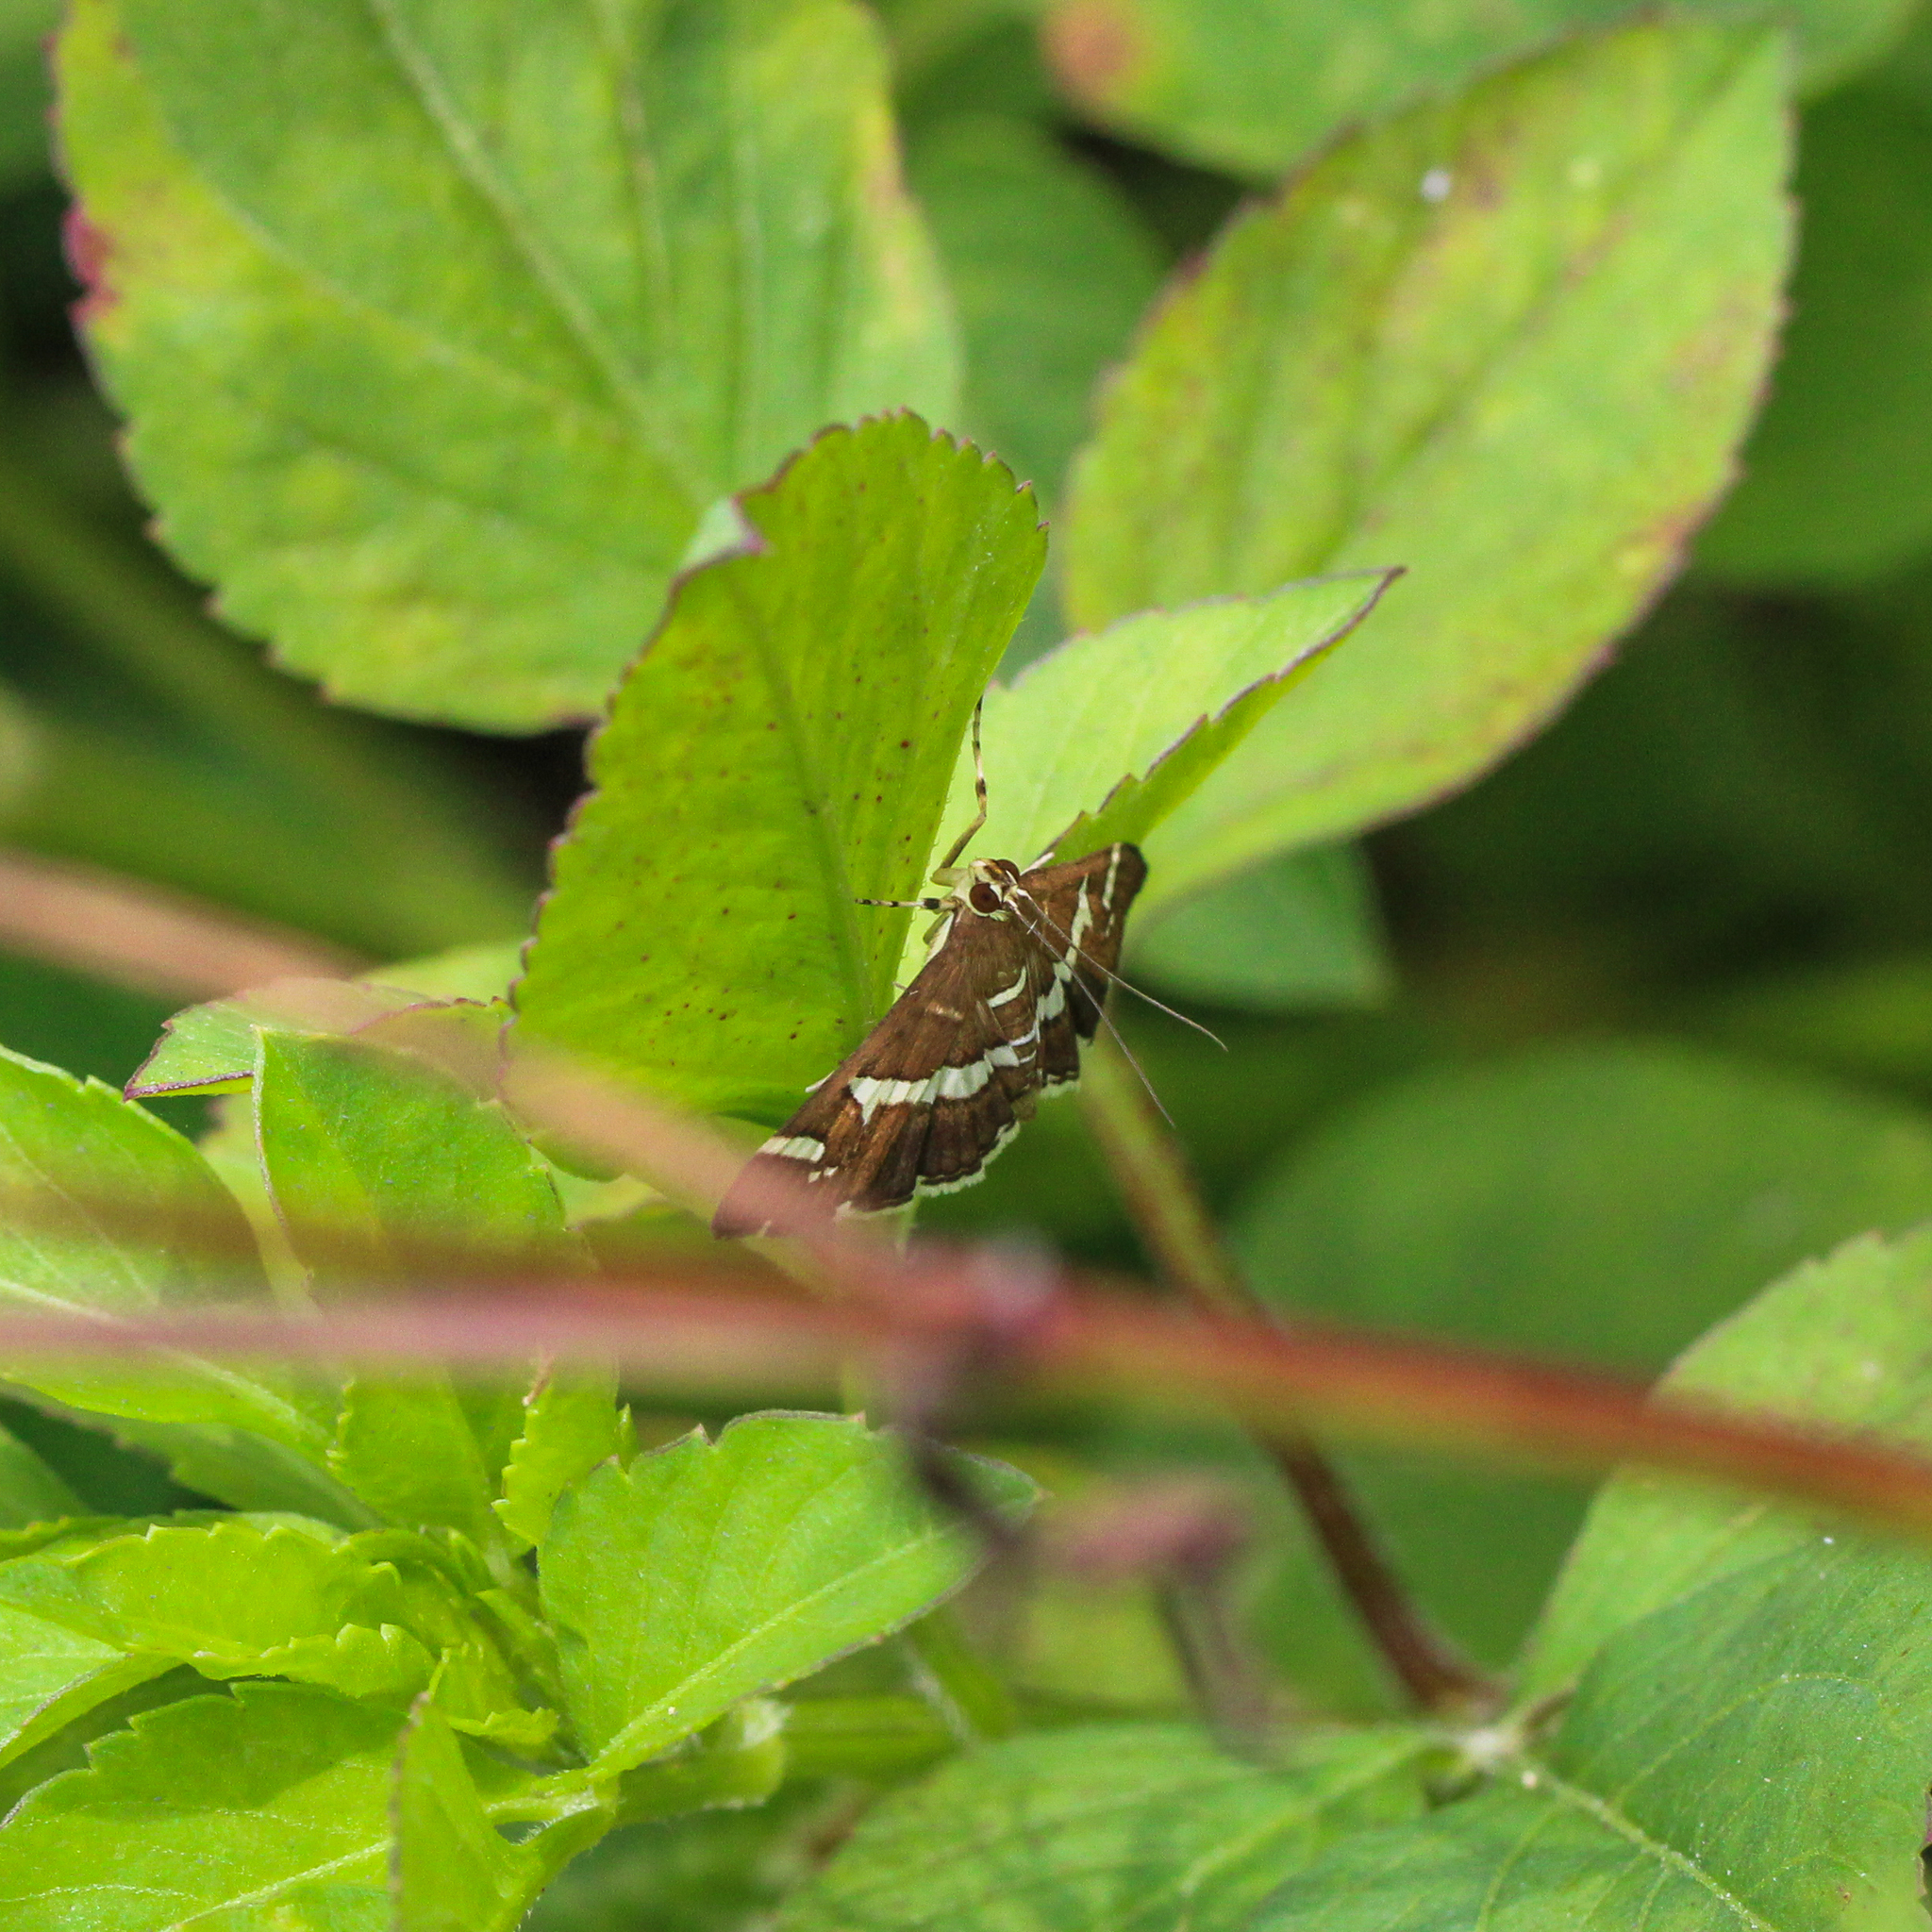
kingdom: Animalia
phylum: Arthropoda
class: Insecta
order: Lepidoptera
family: Crambidae
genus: Spoladea
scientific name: Spoladea recurvalis
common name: Beet webworm moth
